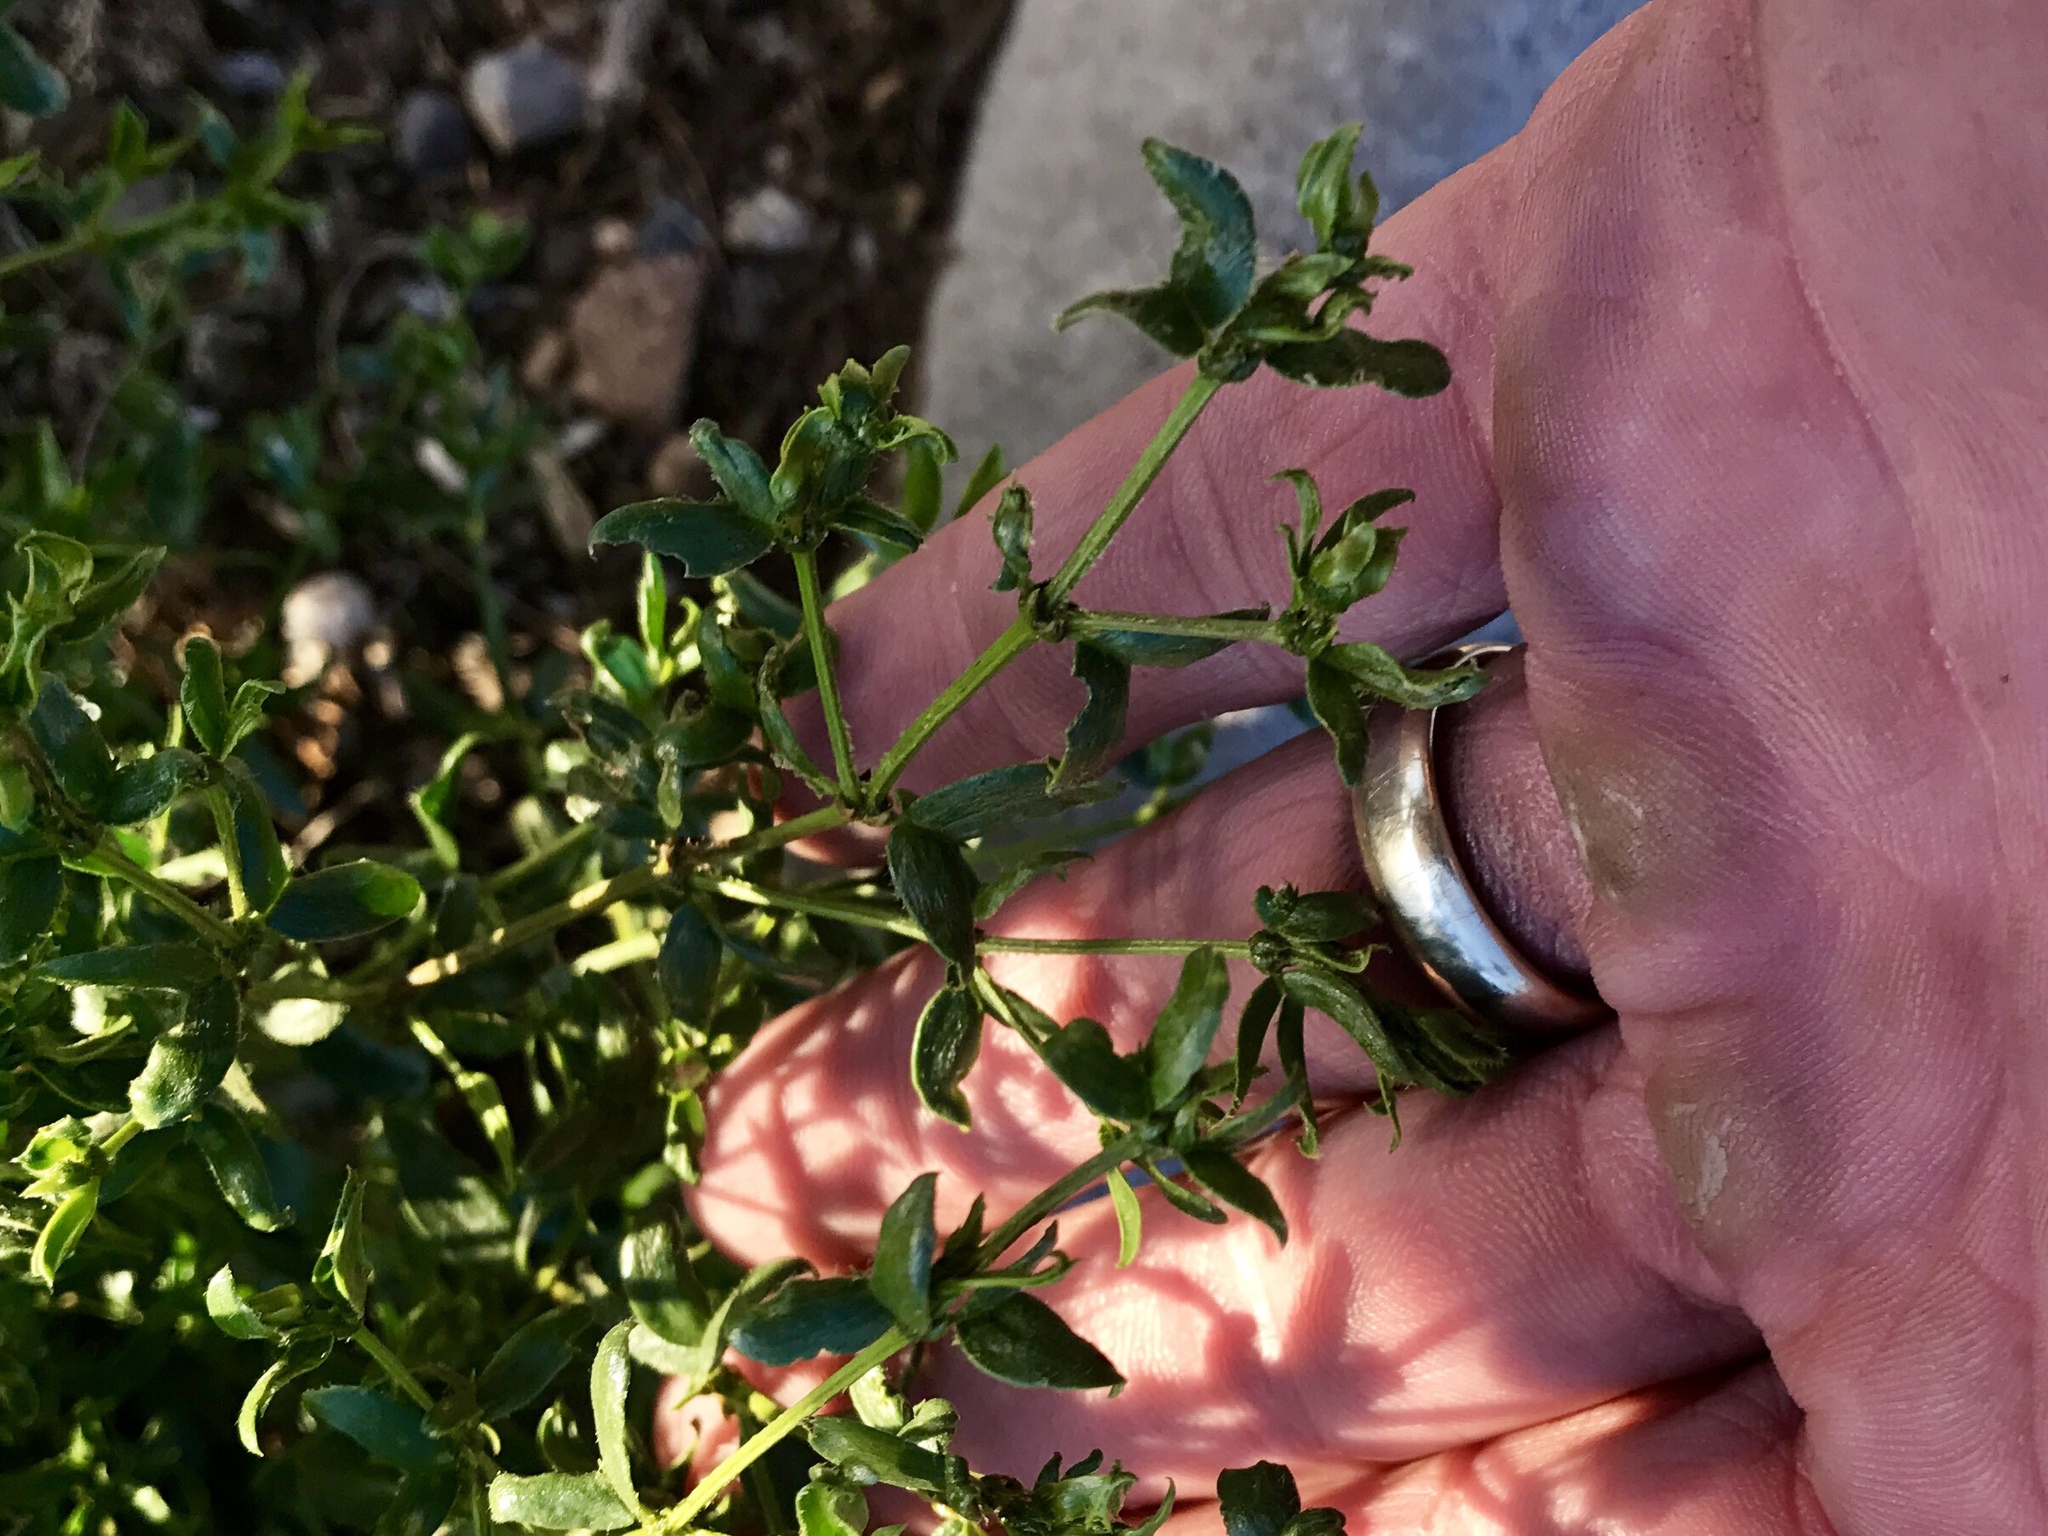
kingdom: Plantae
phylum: Tracheophyta
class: Magnoliopsida
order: Zygophyllales
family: Zygophyllaceae
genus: Larrea
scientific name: Larrea tridentata
